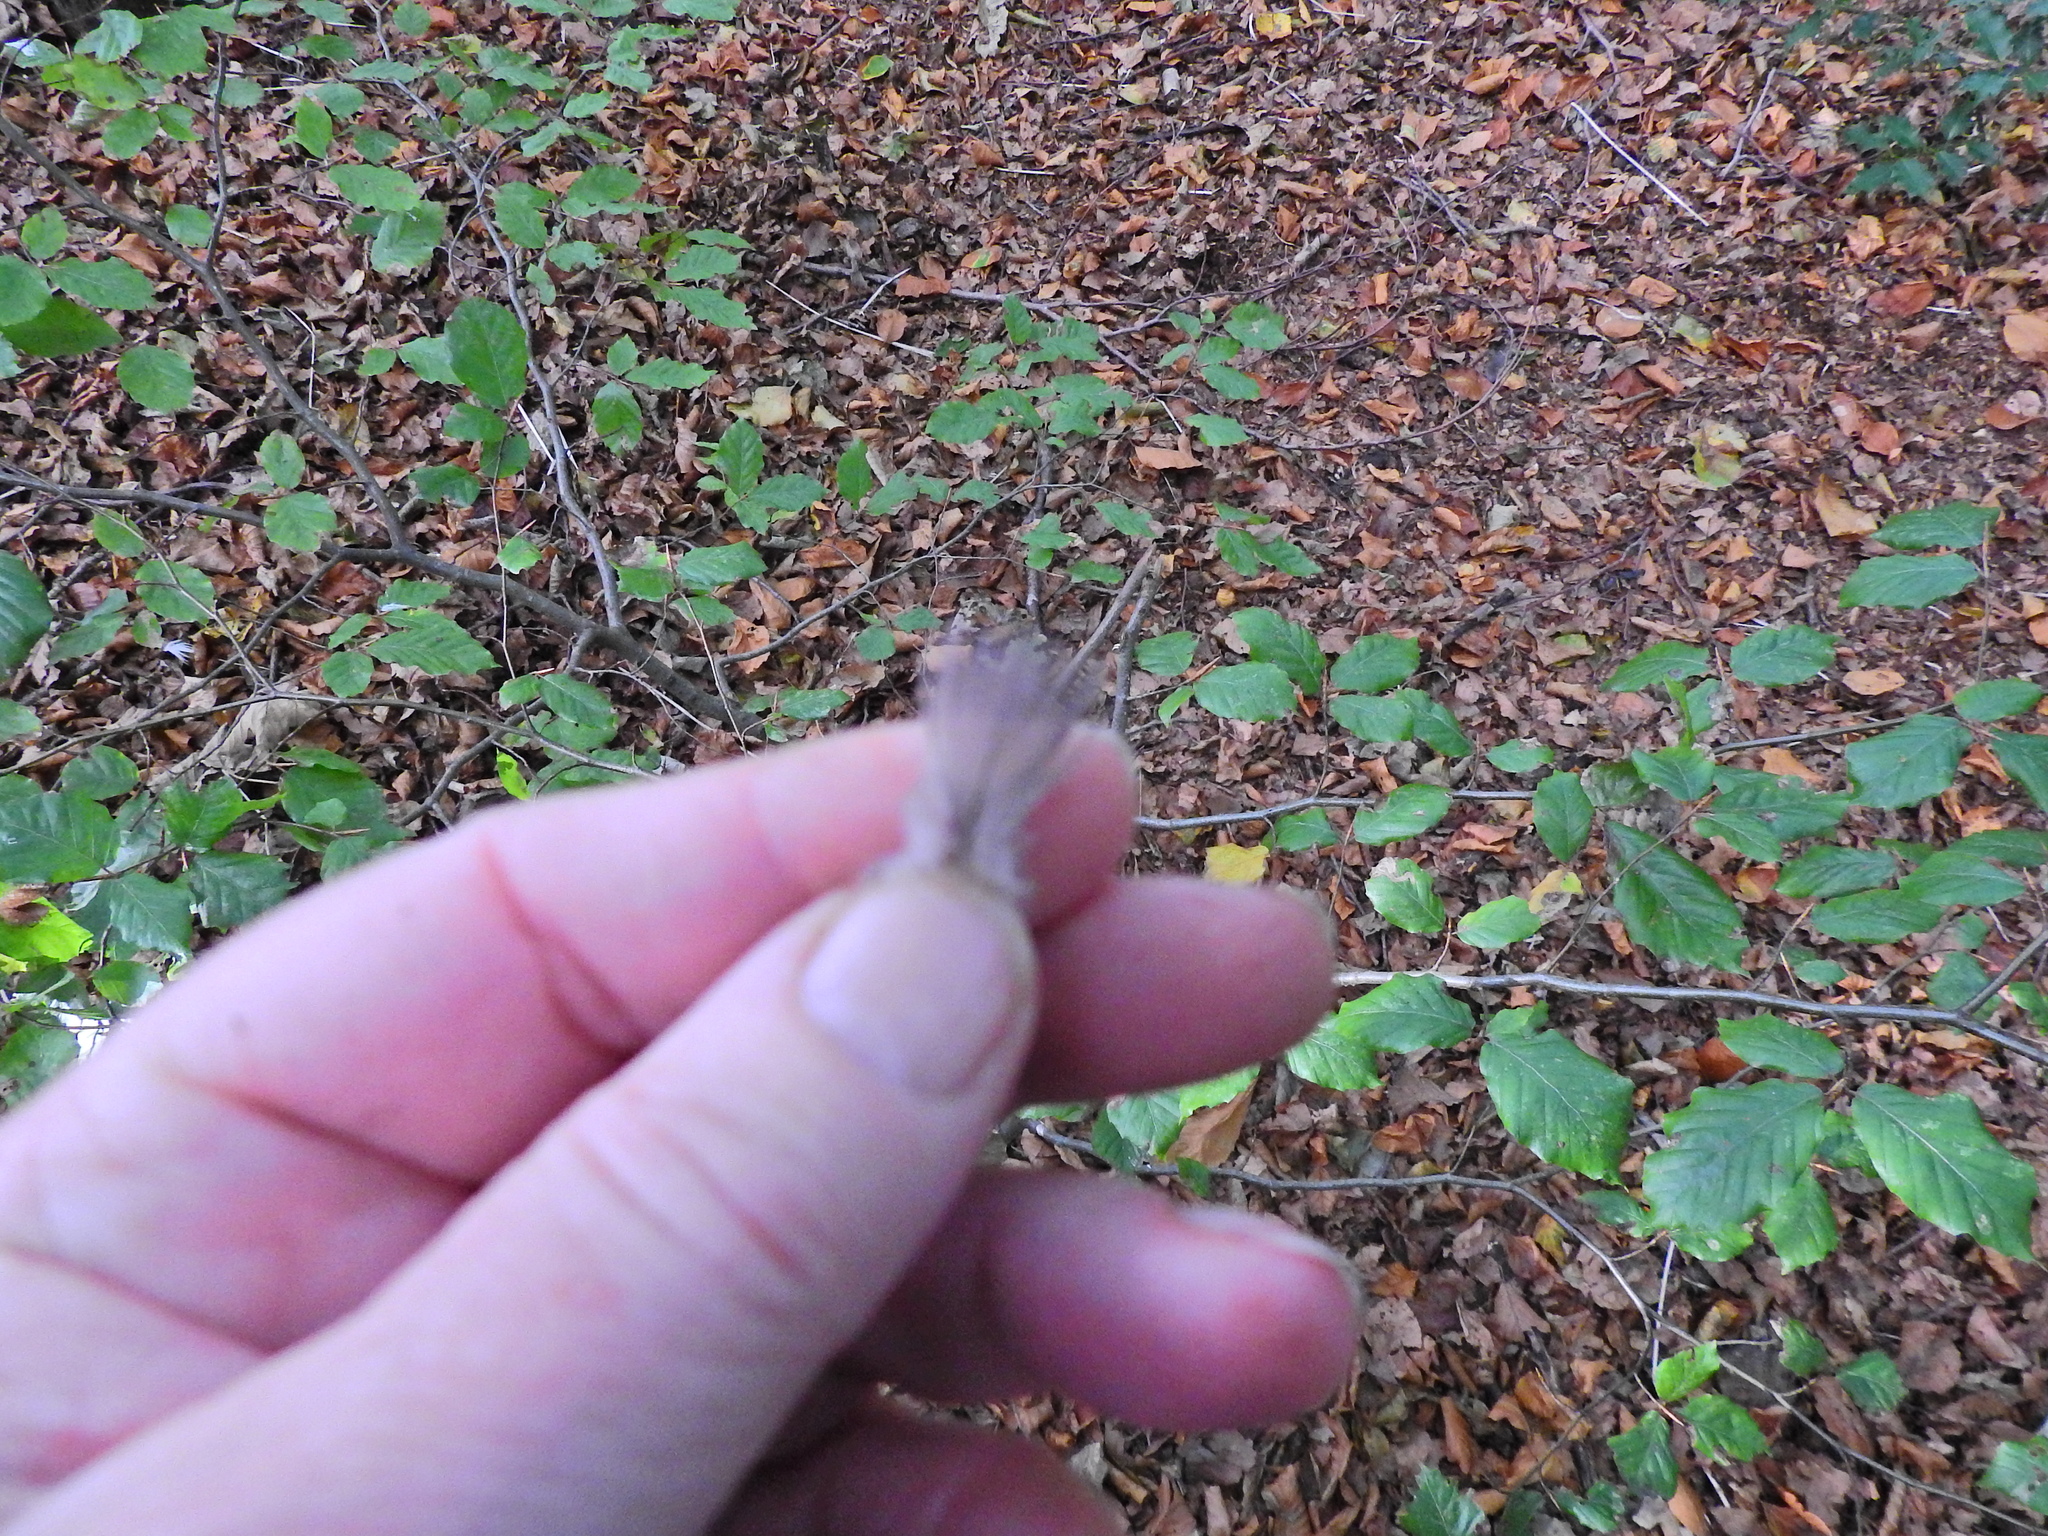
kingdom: Animalia
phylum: Chordata
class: Aves
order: Columbiformes
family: Columbidae
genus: Columba
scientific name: Columba palumbus
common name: Common wood pigeon
